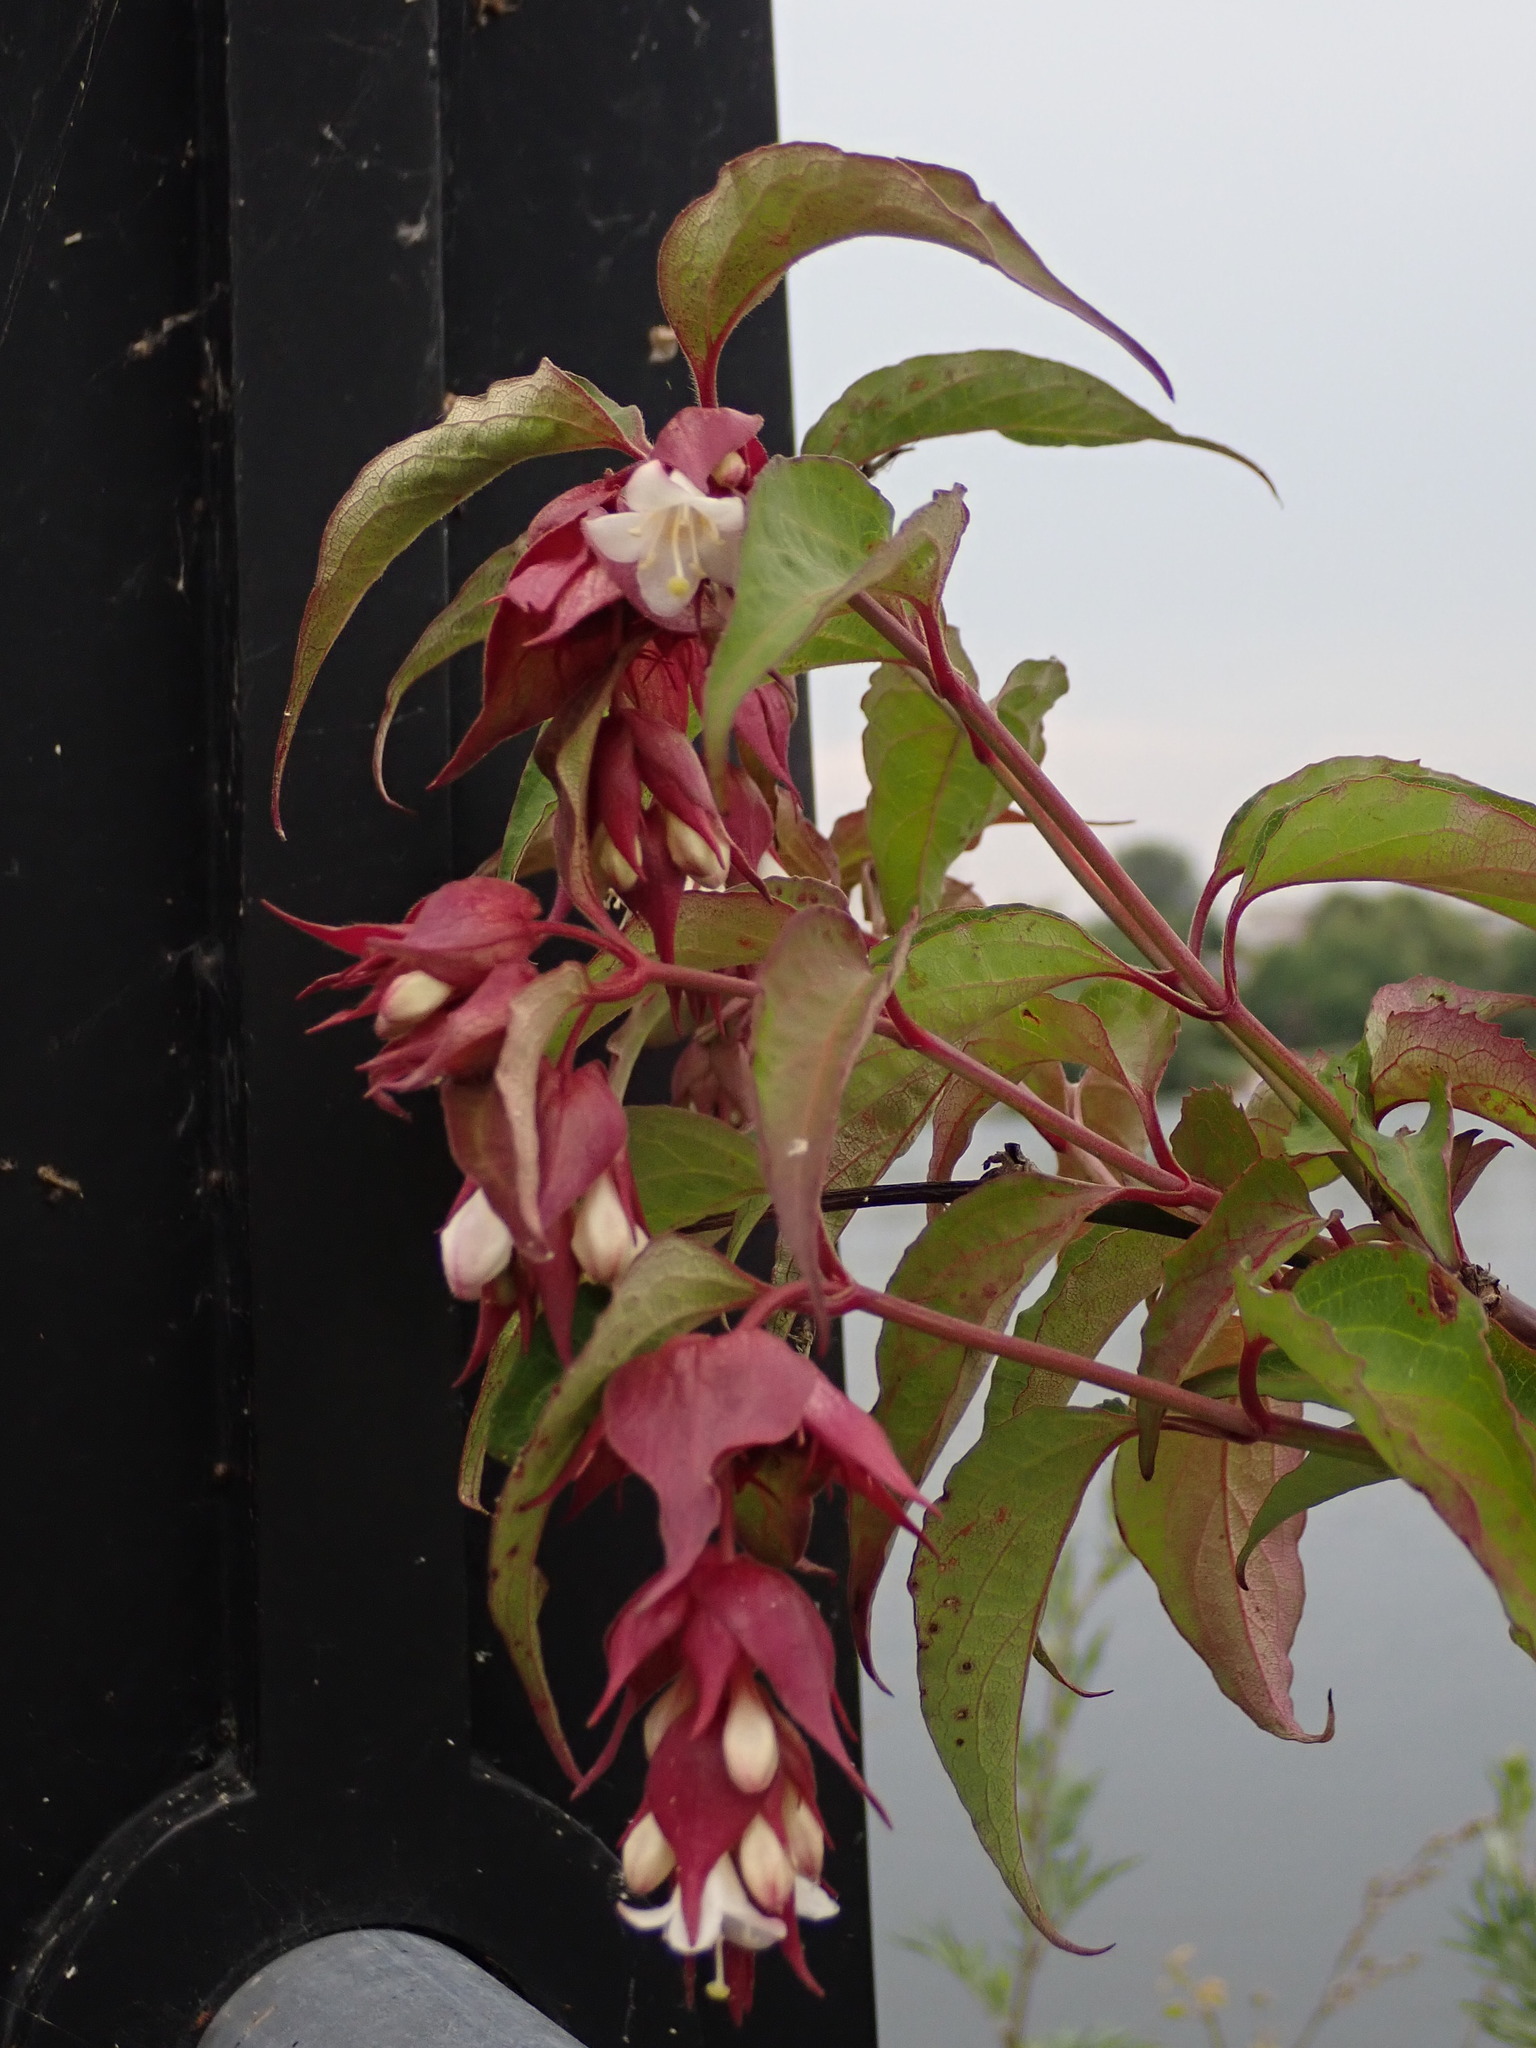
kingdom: Plantae
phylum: Tracheophyta
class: Magnoliopsida
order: Dipsacales
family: Caprifoliaceae
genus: Leycesteria
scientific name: Leycesteria formosa
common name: Himalayan honeysuckle
